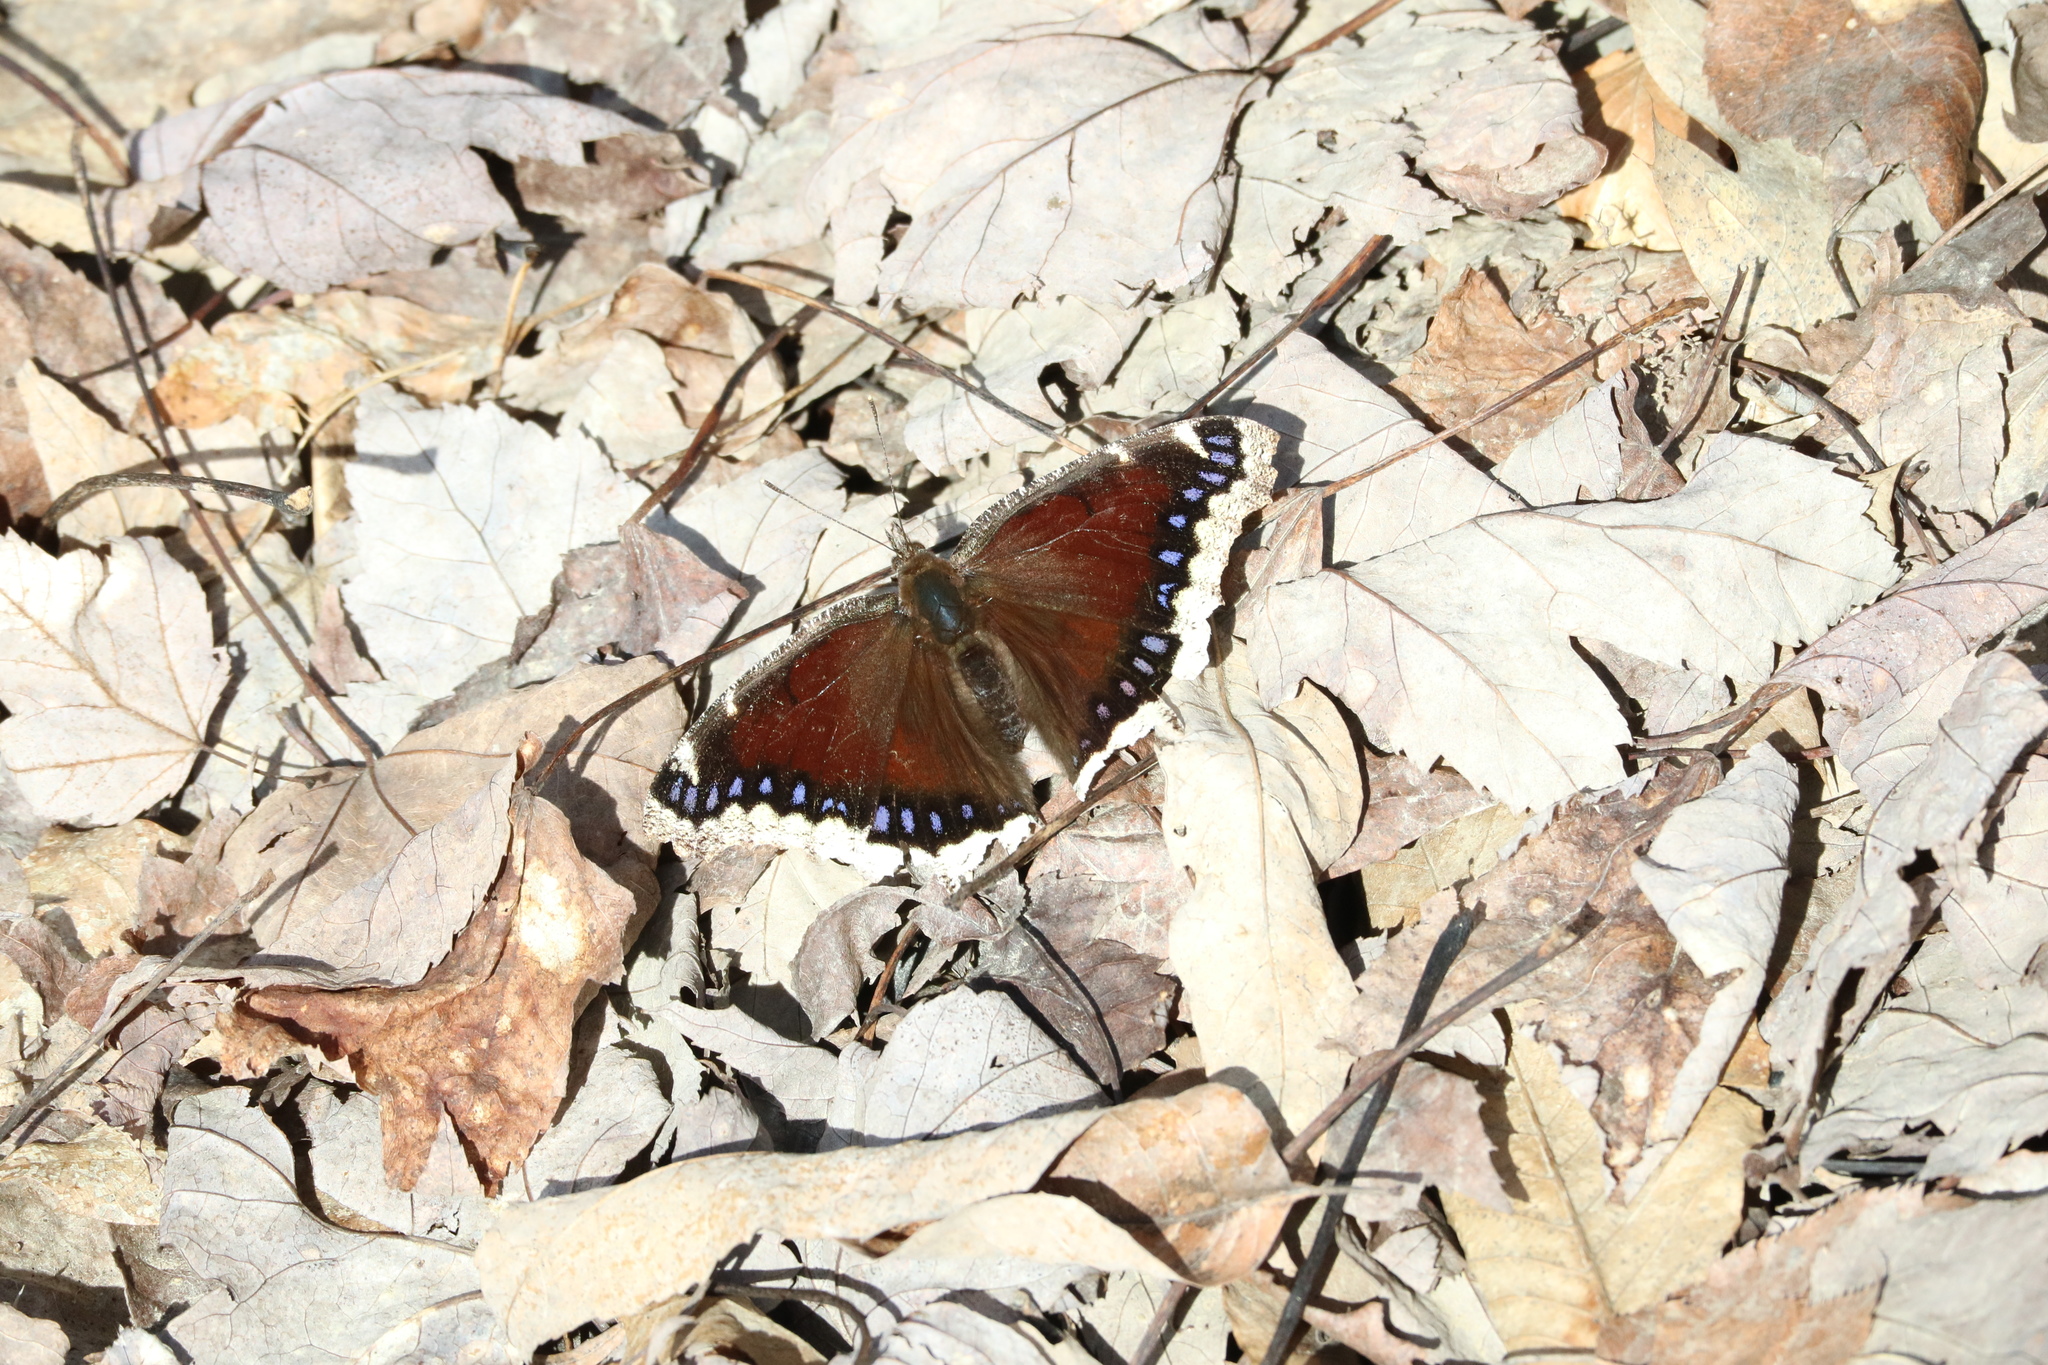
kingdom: Animalia
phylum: Arthropoda
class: Insecta
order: Lepidoptera
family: Nymphalidae
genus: Nymphalis
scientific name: Nymphalis antiopa
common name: Camberwell beauty
